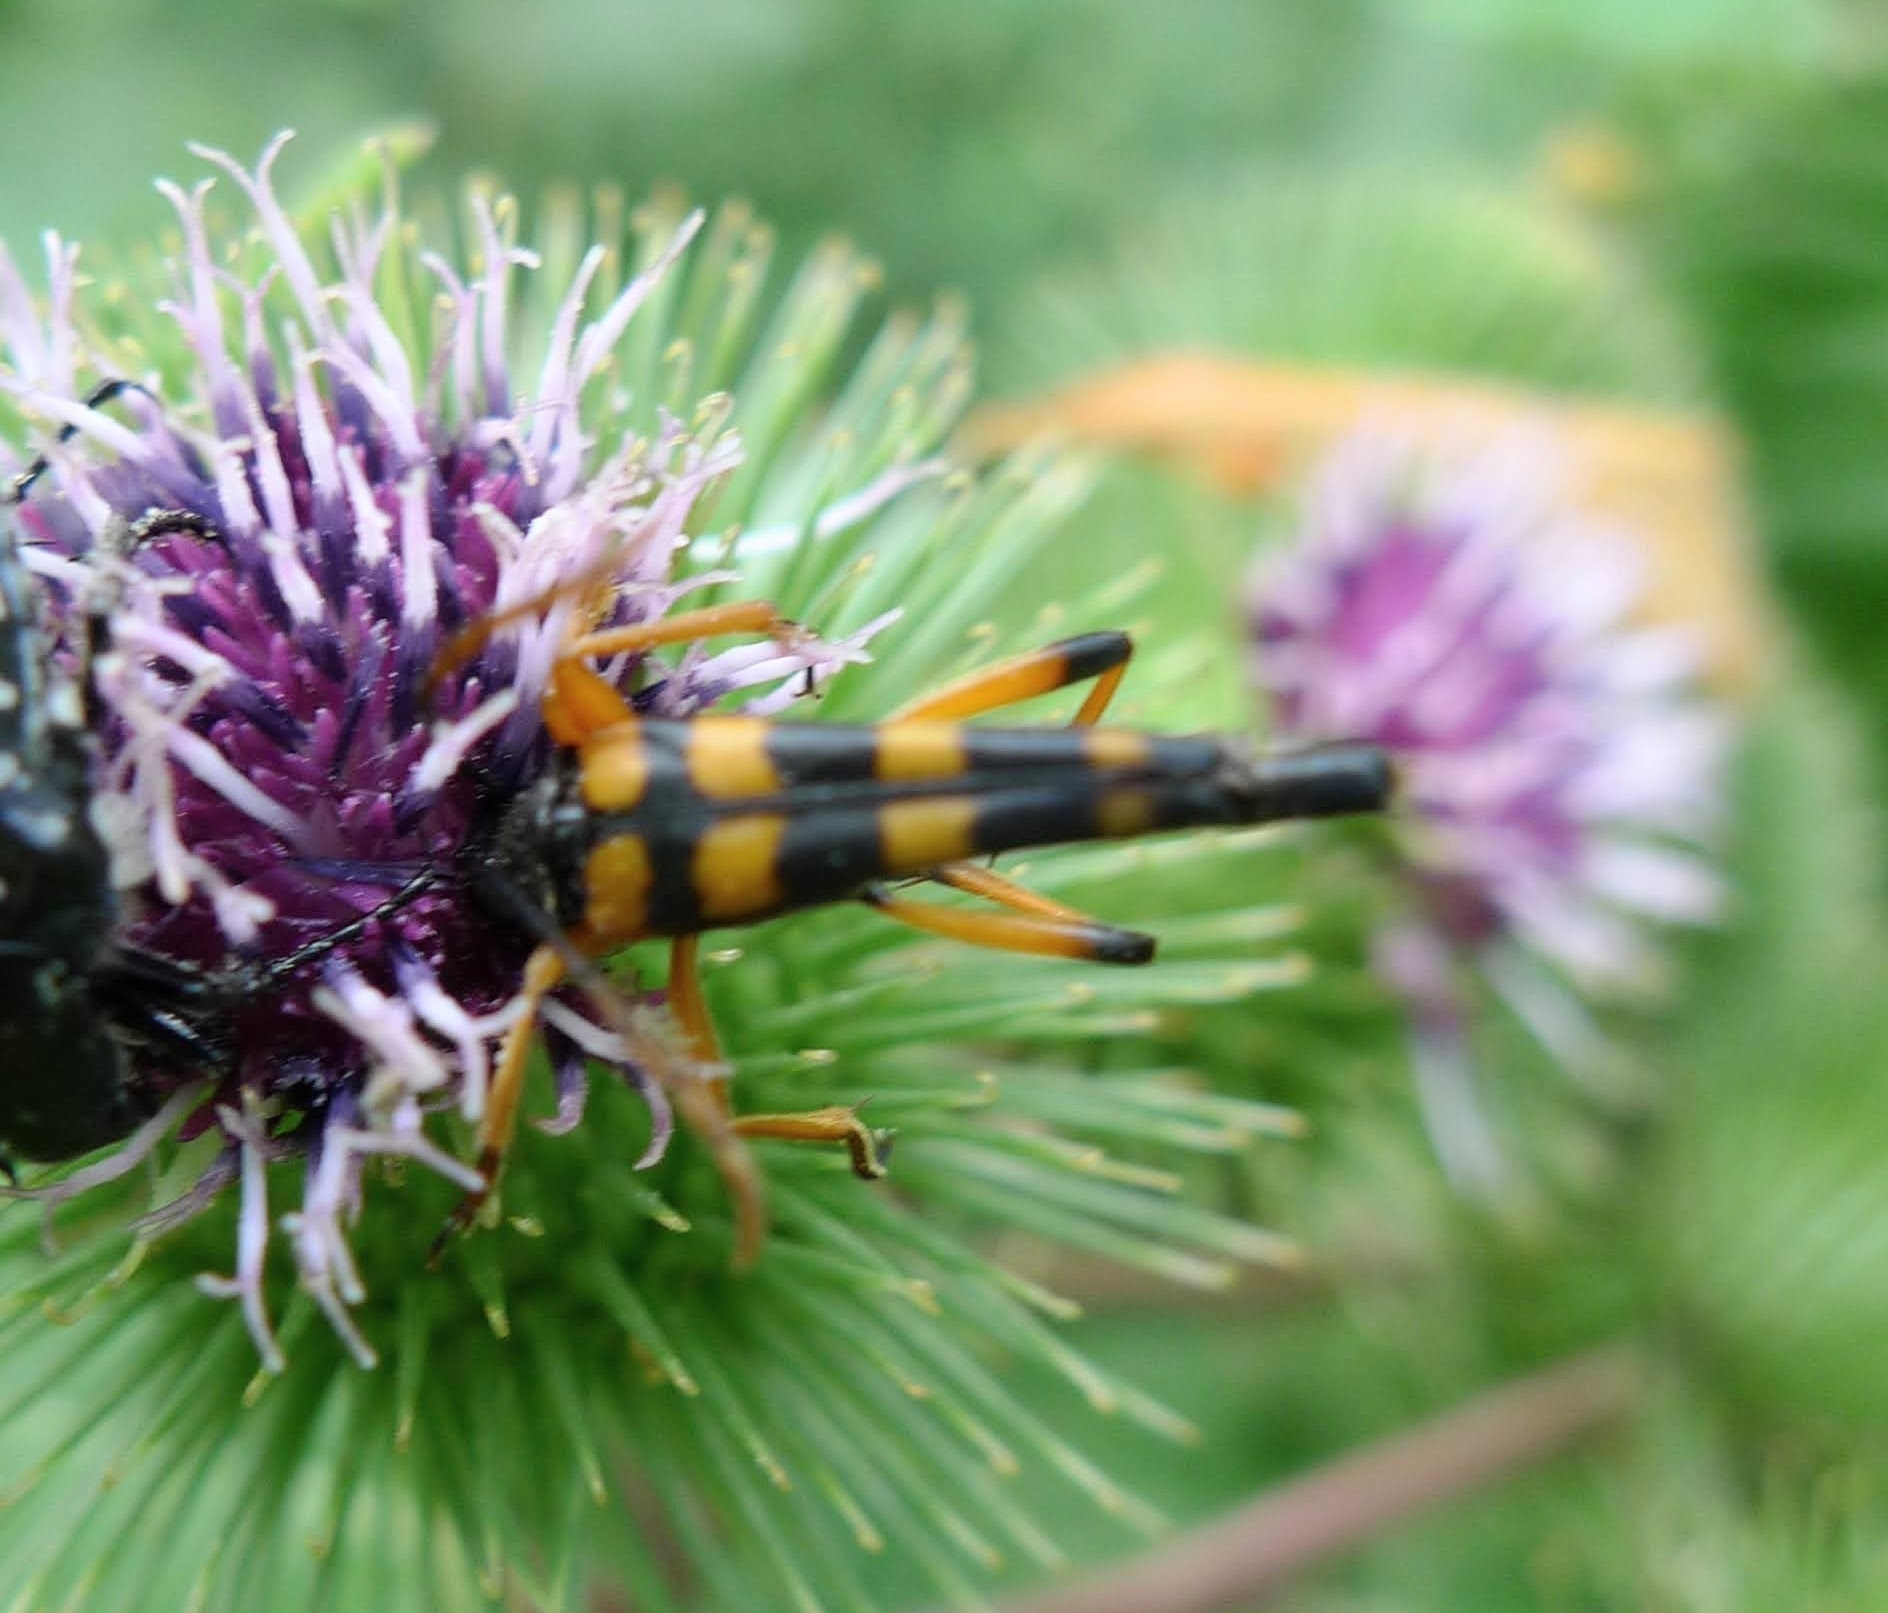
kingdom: Animalia
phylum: Arthropoda
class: Insecta
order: Coleoptera
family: Cerambycidae
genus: Strangalia
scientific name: Strangalia attenuata
